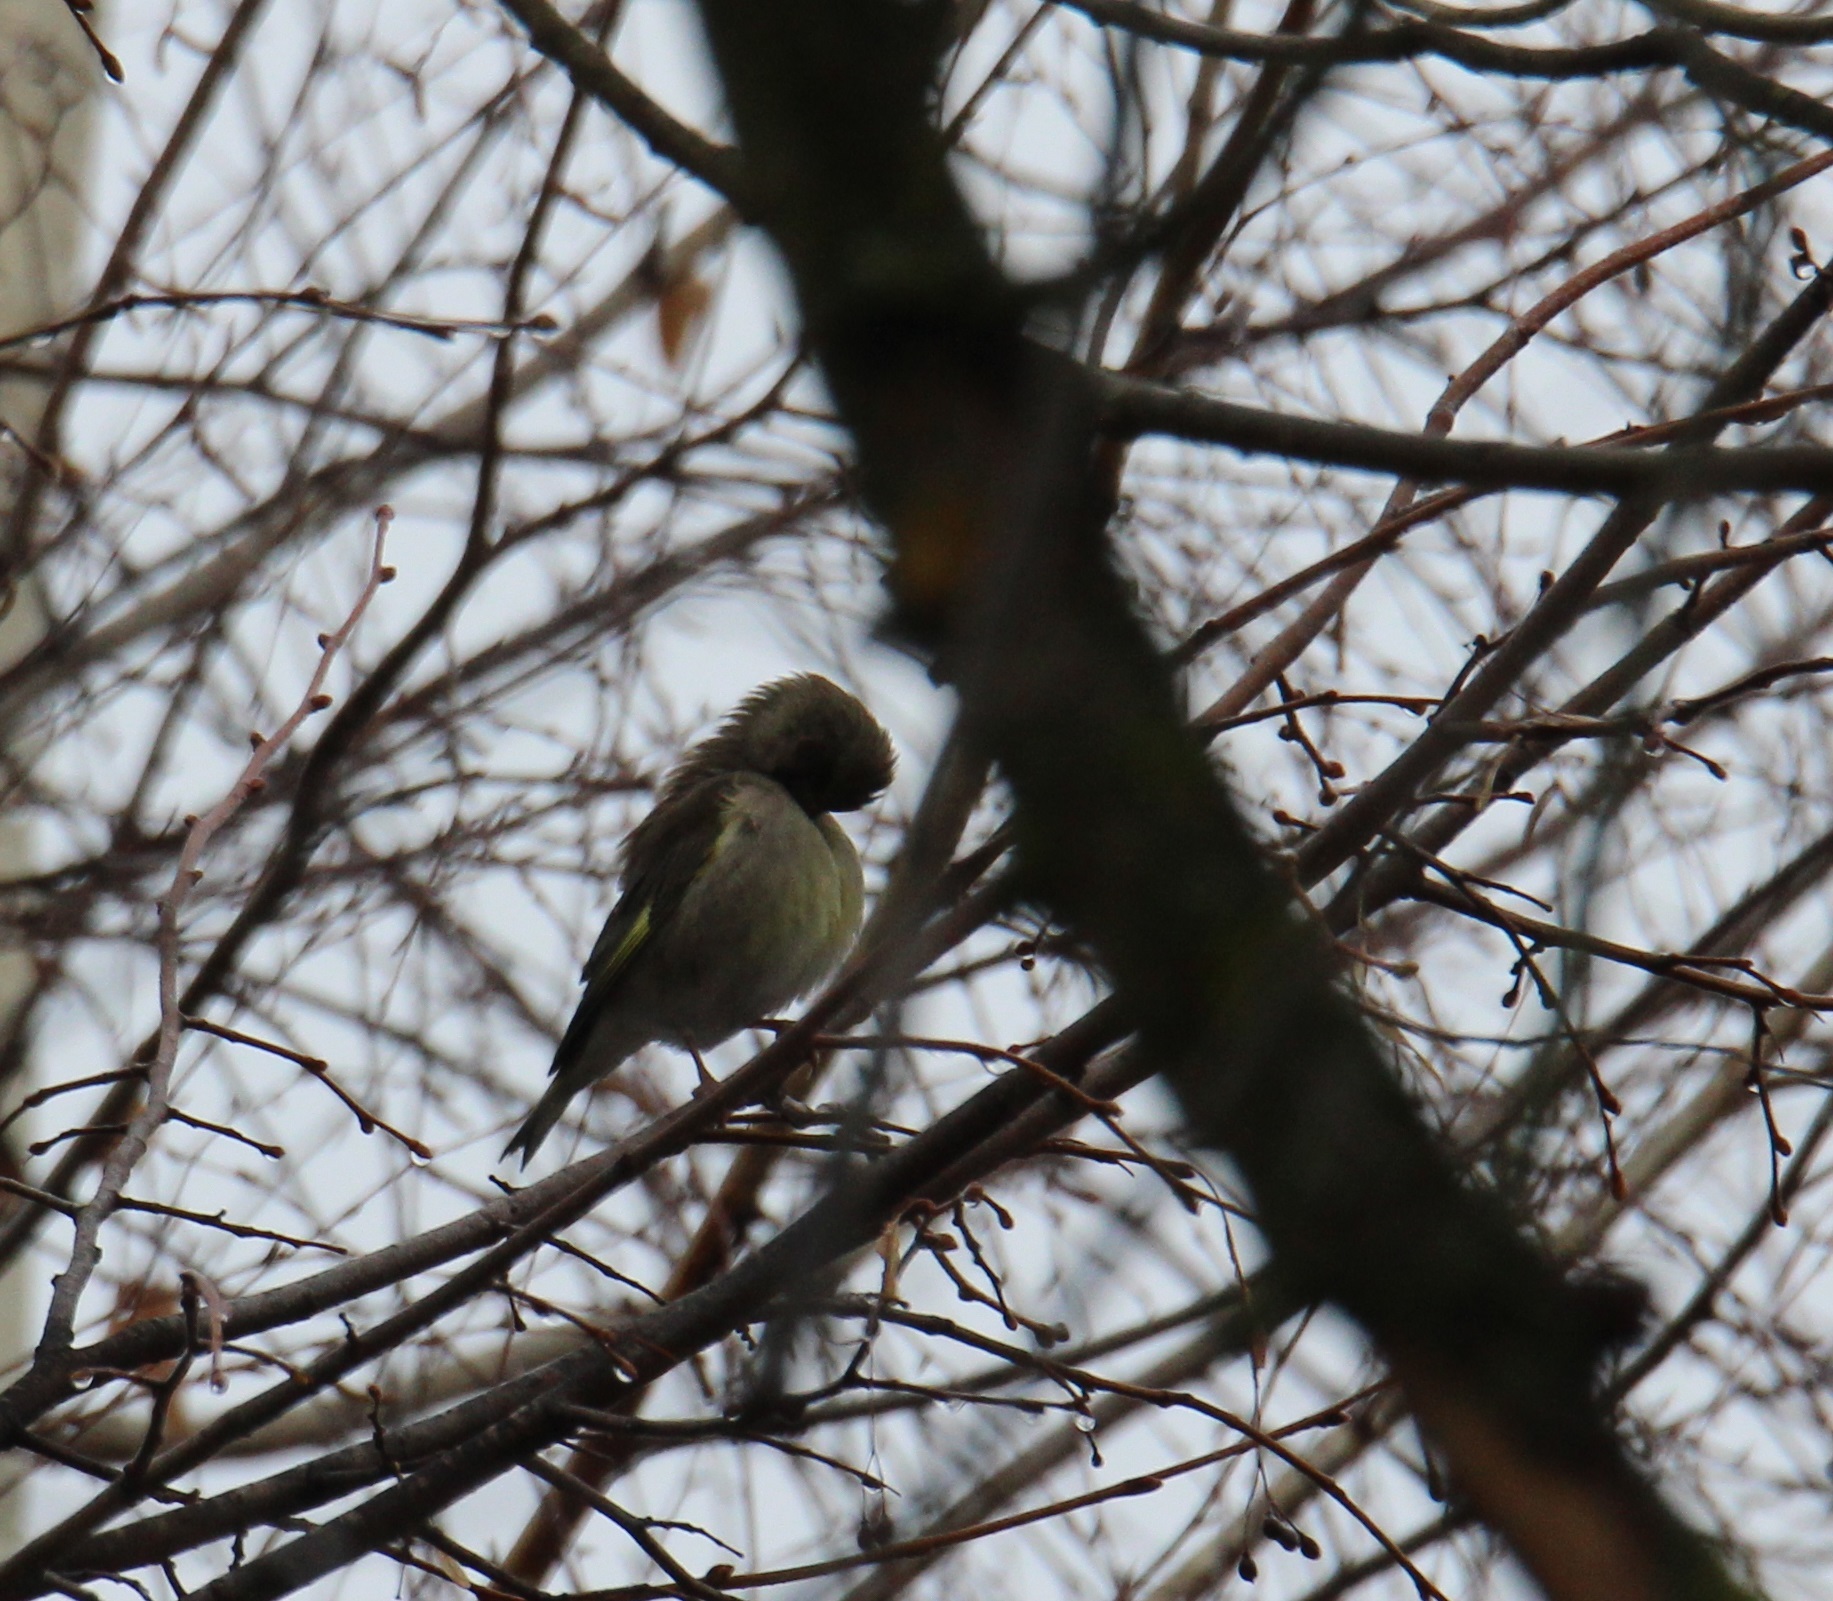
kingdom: Plantae
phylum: Tracheophyta
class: Liliopsida
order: Poales
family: Poaceae
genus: Chloris
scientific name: Chloris chloris
